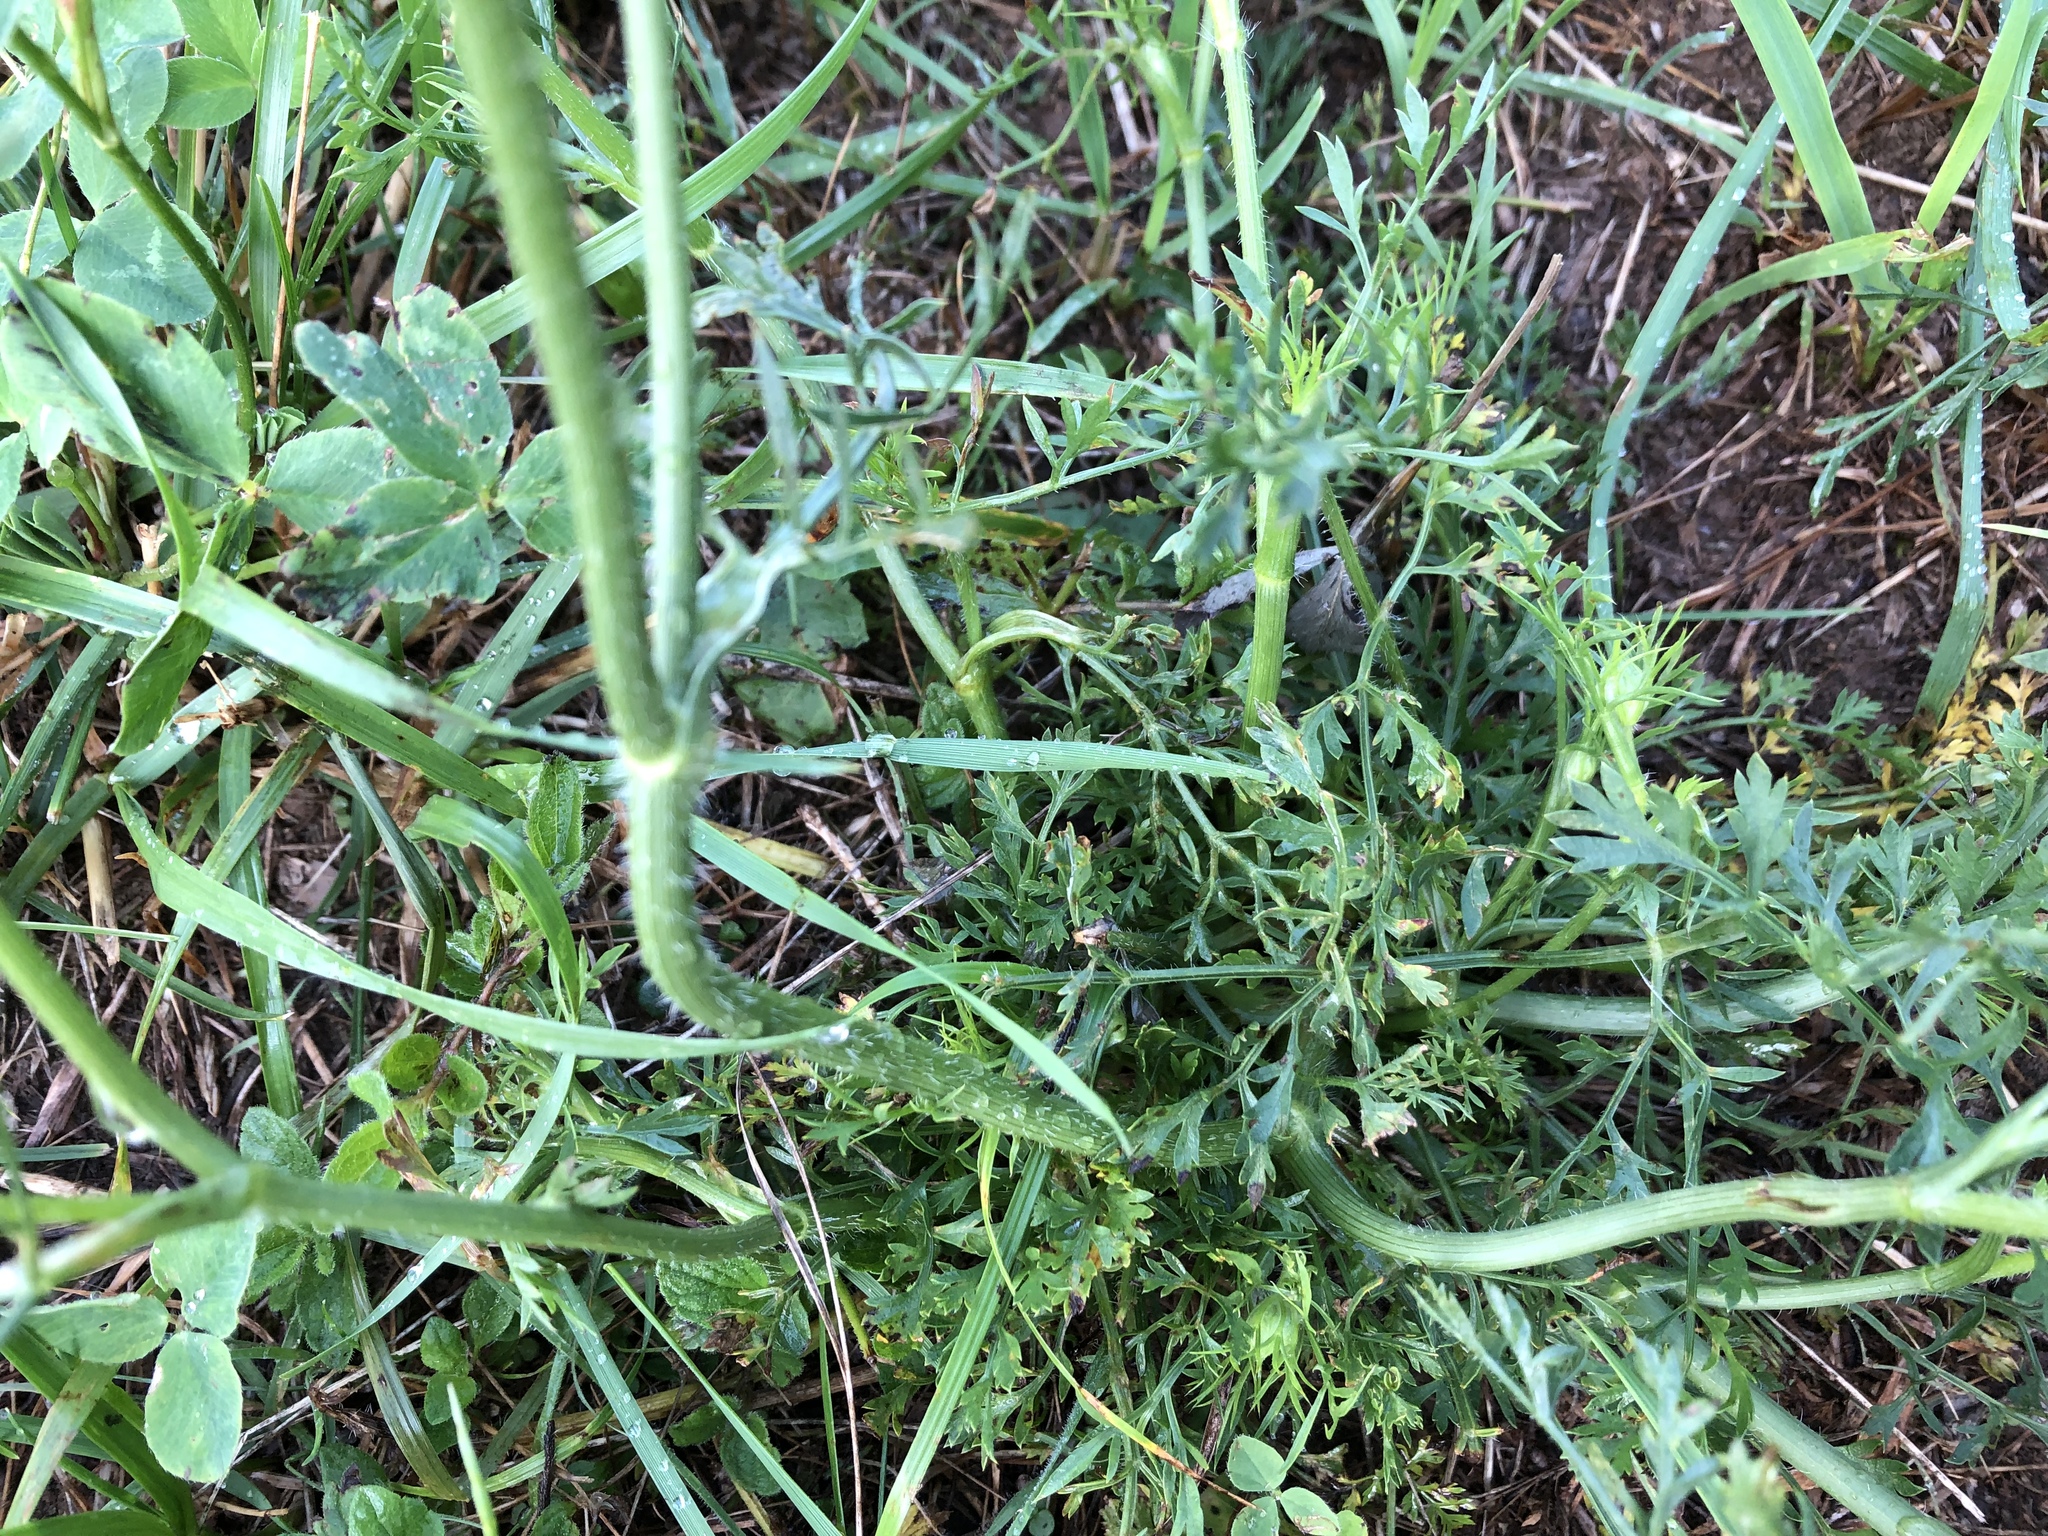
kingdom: Plantae
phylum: Tracheophyta
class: Magnoliopsida
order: Apiales
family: Apiaceae
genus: Daucus
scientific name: Daucus carota
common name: Wild carrot
